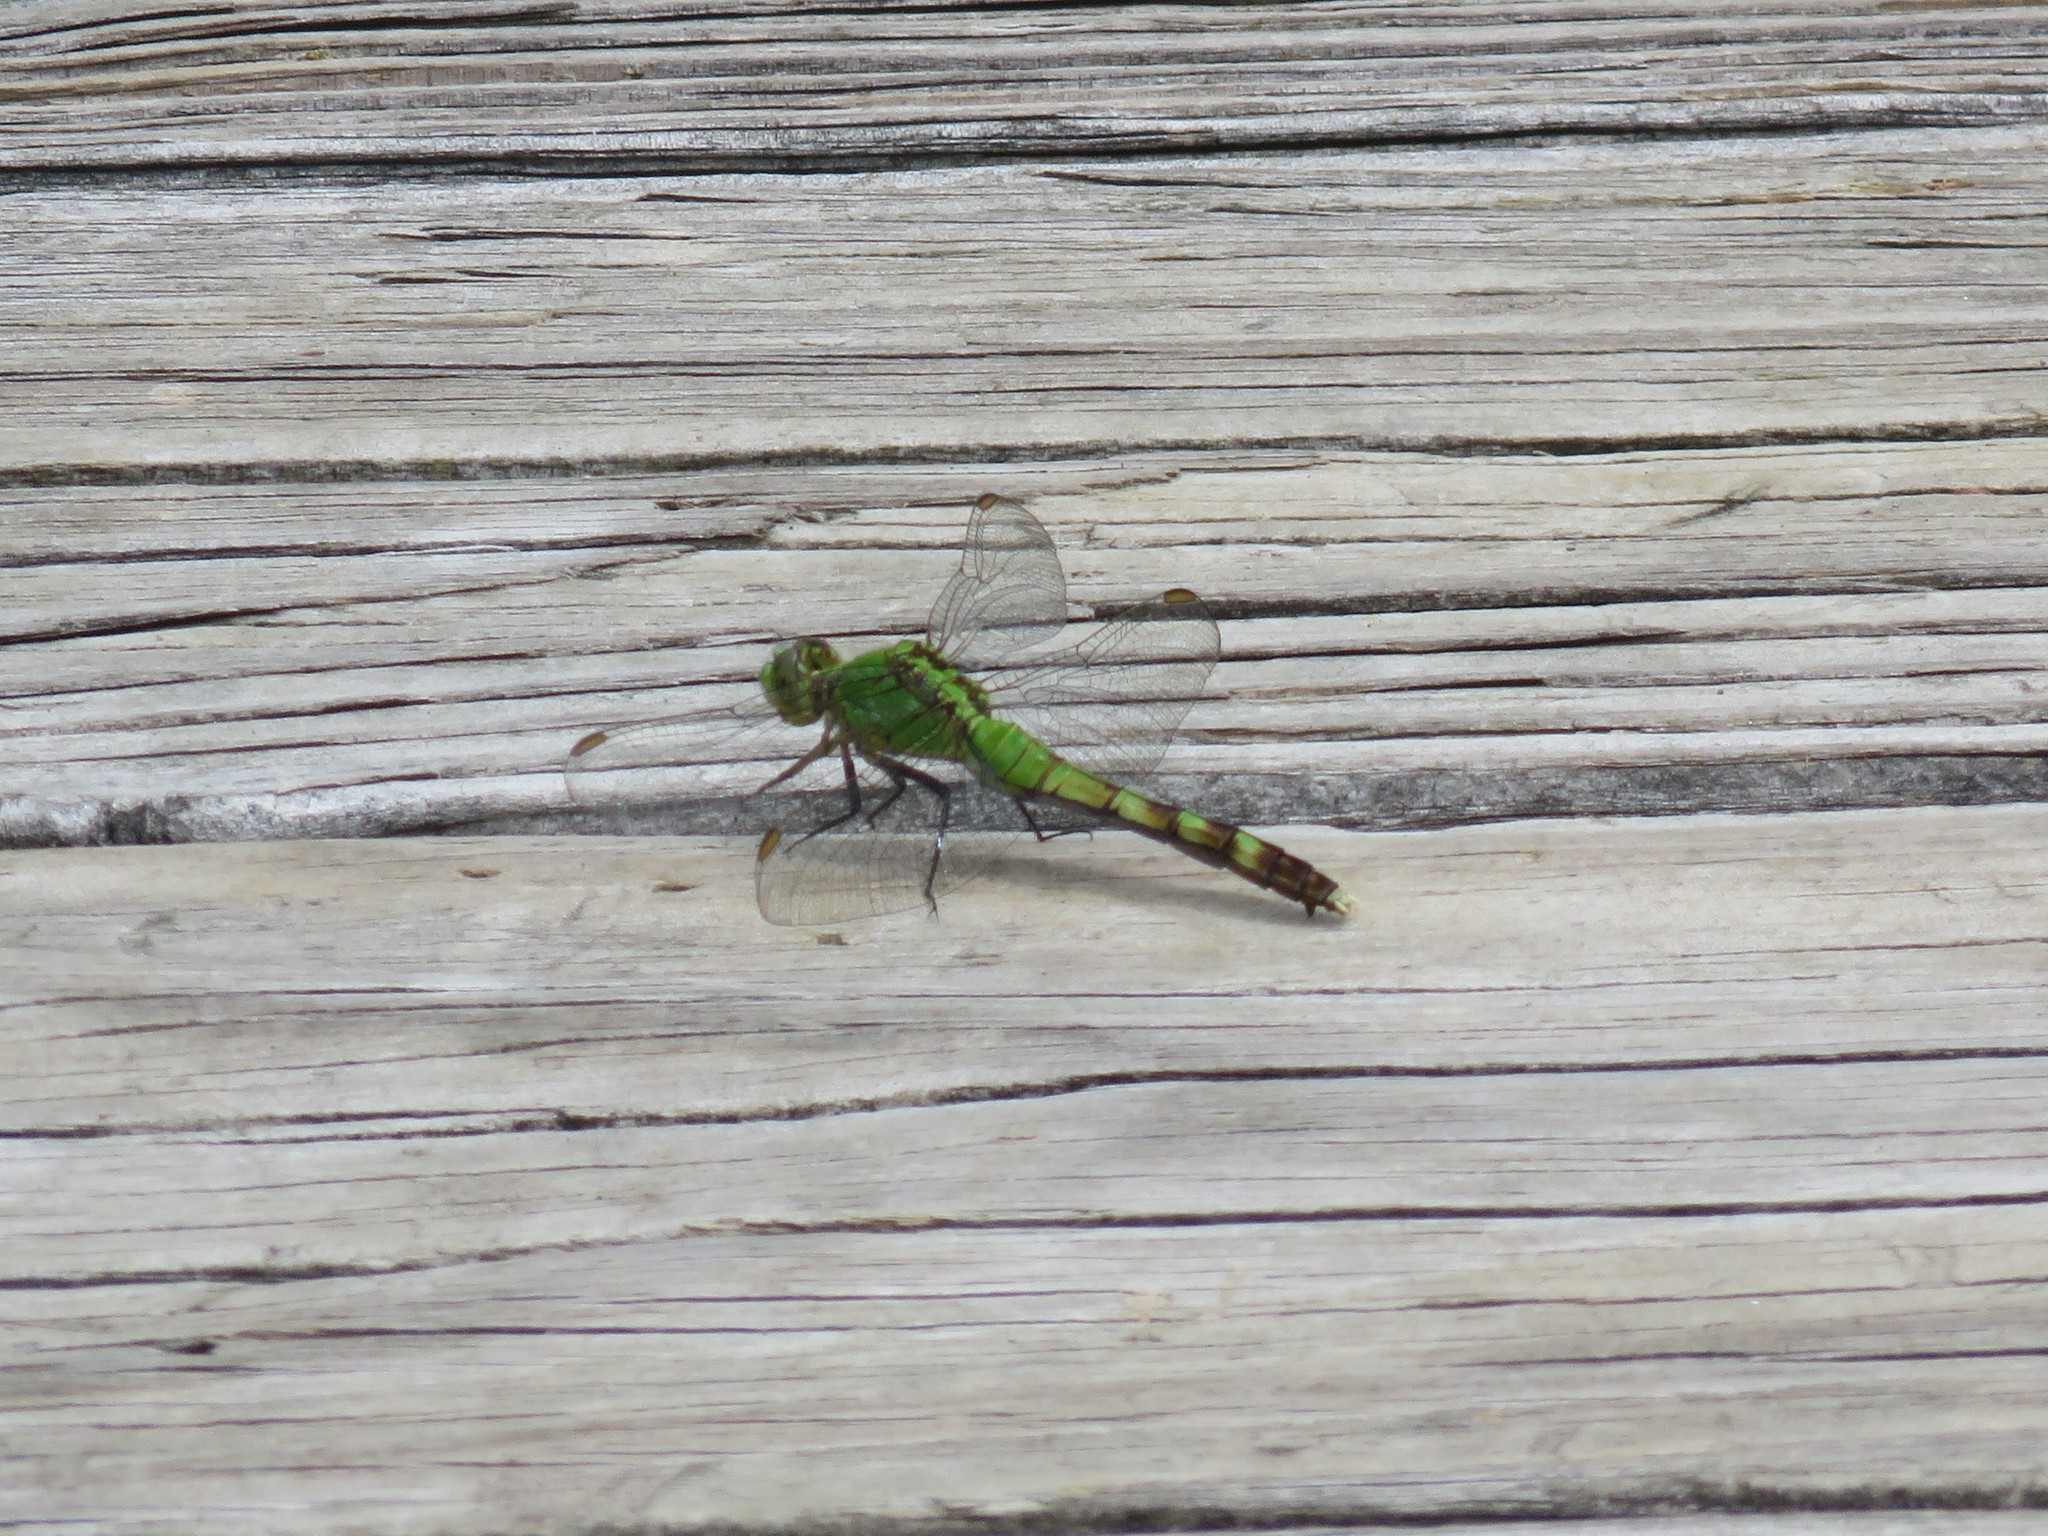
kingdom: Animalia
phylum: Arthropoda
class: Insecta
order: Odonata
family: Libellulidae
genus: Erythemis
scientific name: Erythemis simplicicollis
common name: Eastern pondhawk
